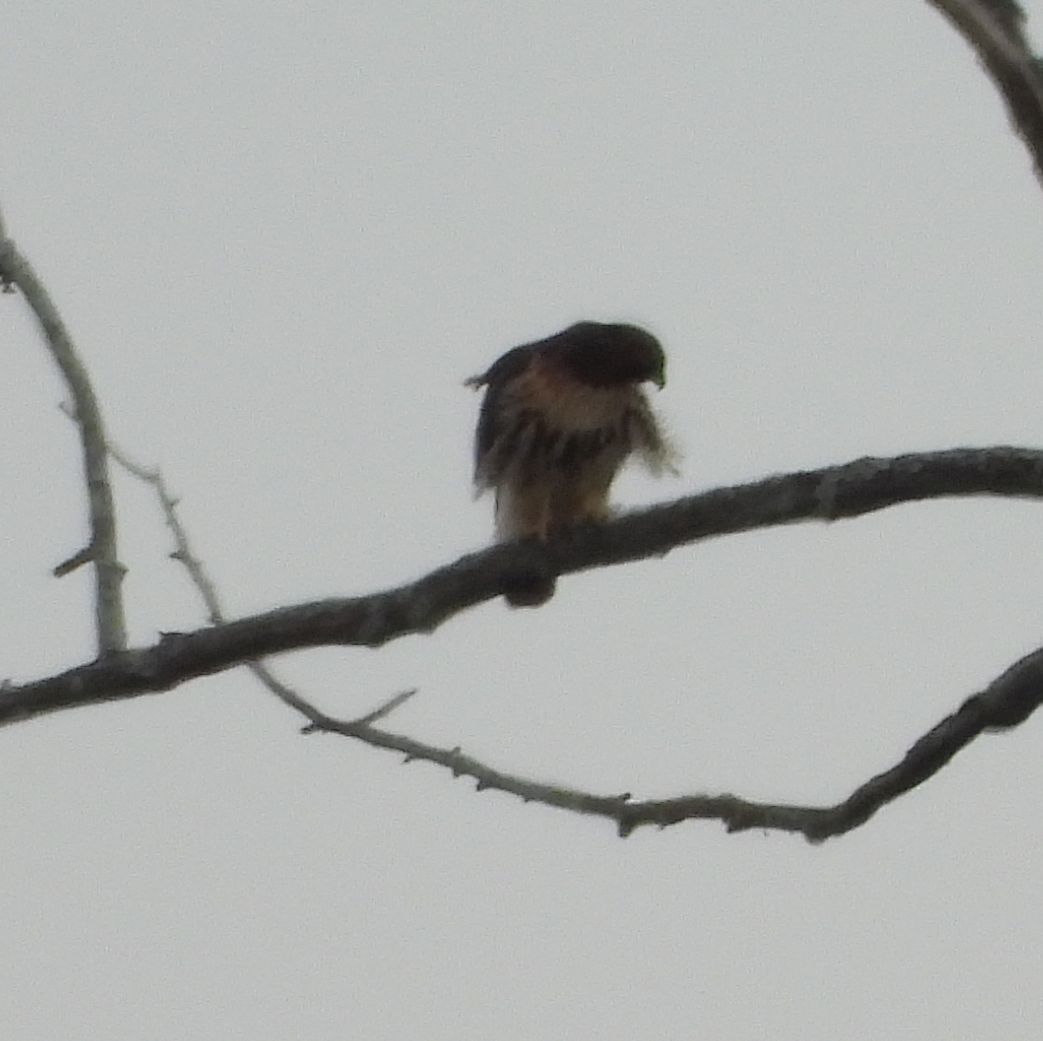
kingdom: Animalia
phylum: Chordata
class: Aves
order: Accipitriformes
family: Accipitridae
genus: Buteo
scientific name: Buteo jamaicensis
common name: Red-tailed hawk
